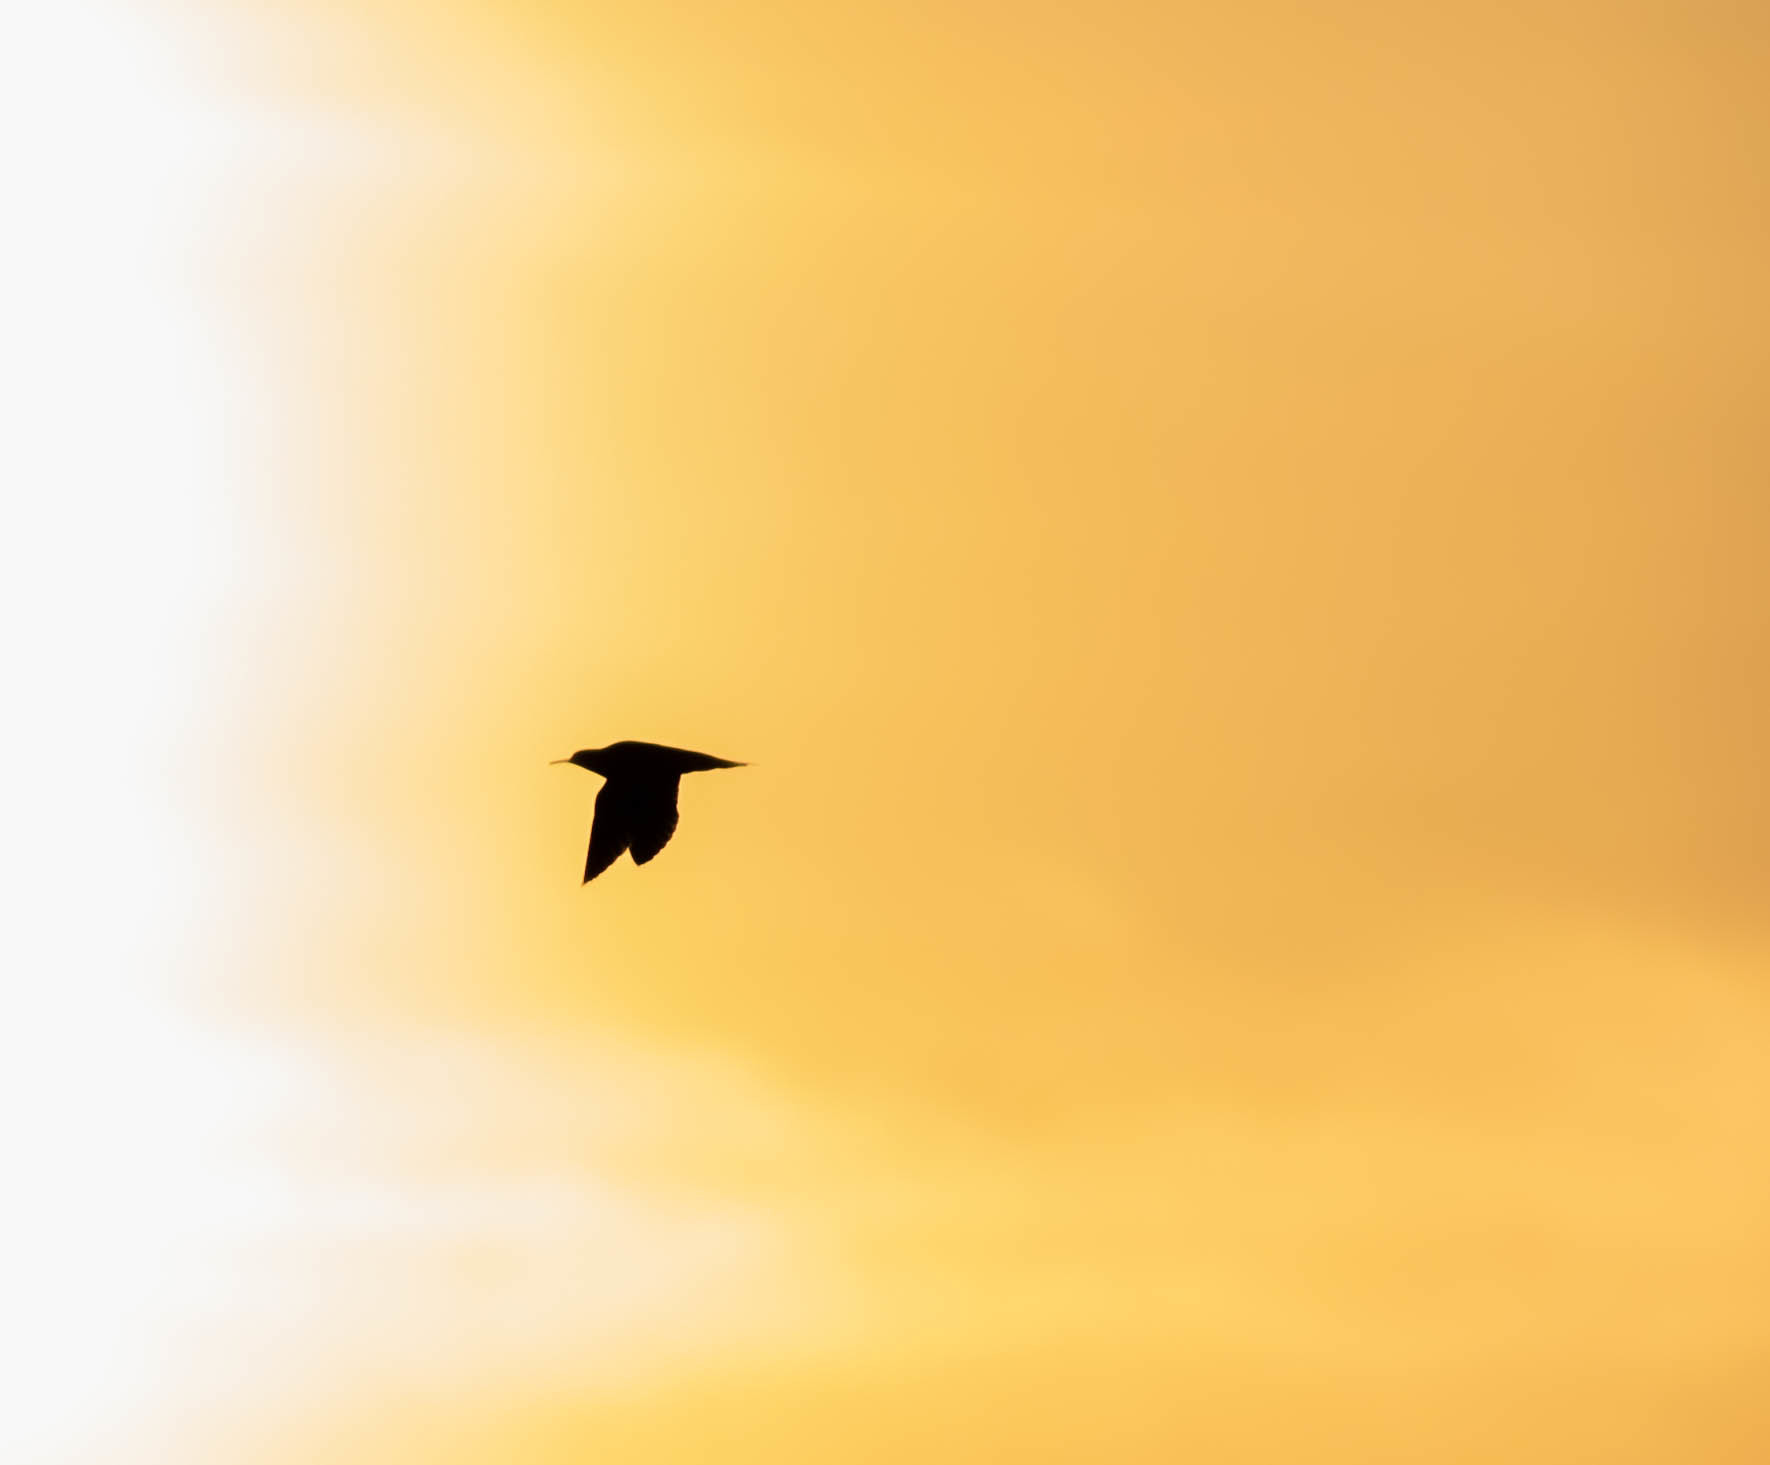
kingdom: Animalia
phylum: Chordata
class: Aves
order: Charadriiformes
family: Scolopacidae
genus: Bartramia
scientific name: Bartramia longicauda
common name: Upland sandpiper
